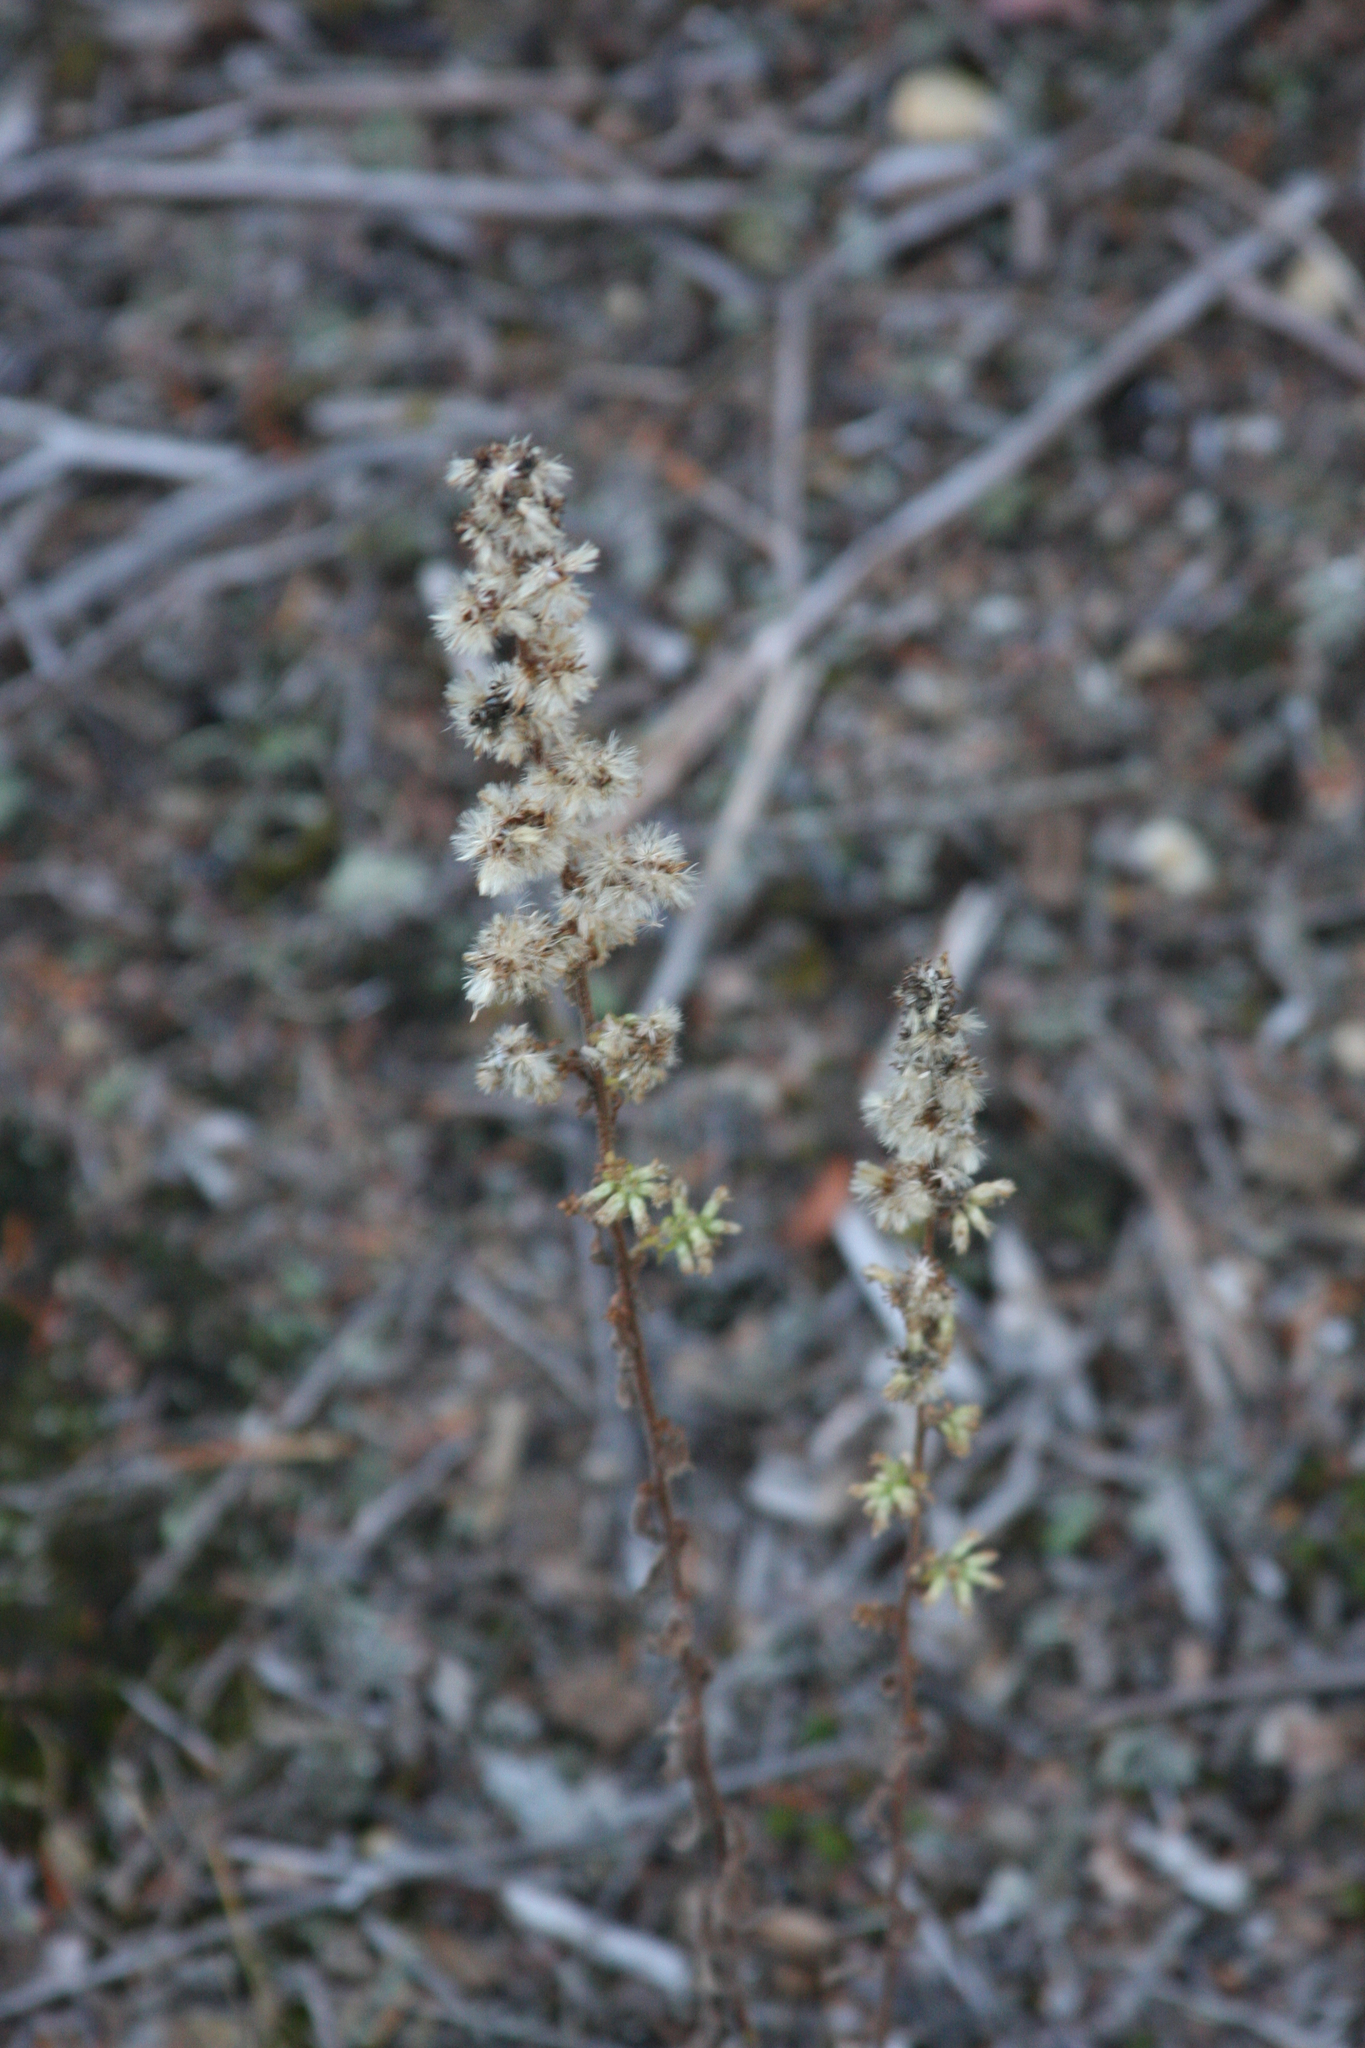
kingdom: Plantae
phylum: Tracheophyta
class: Magnoliopsida
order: Asterales
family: Asteraceae
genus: Solidago
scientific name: Solidago bicolor
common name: Silverrod
